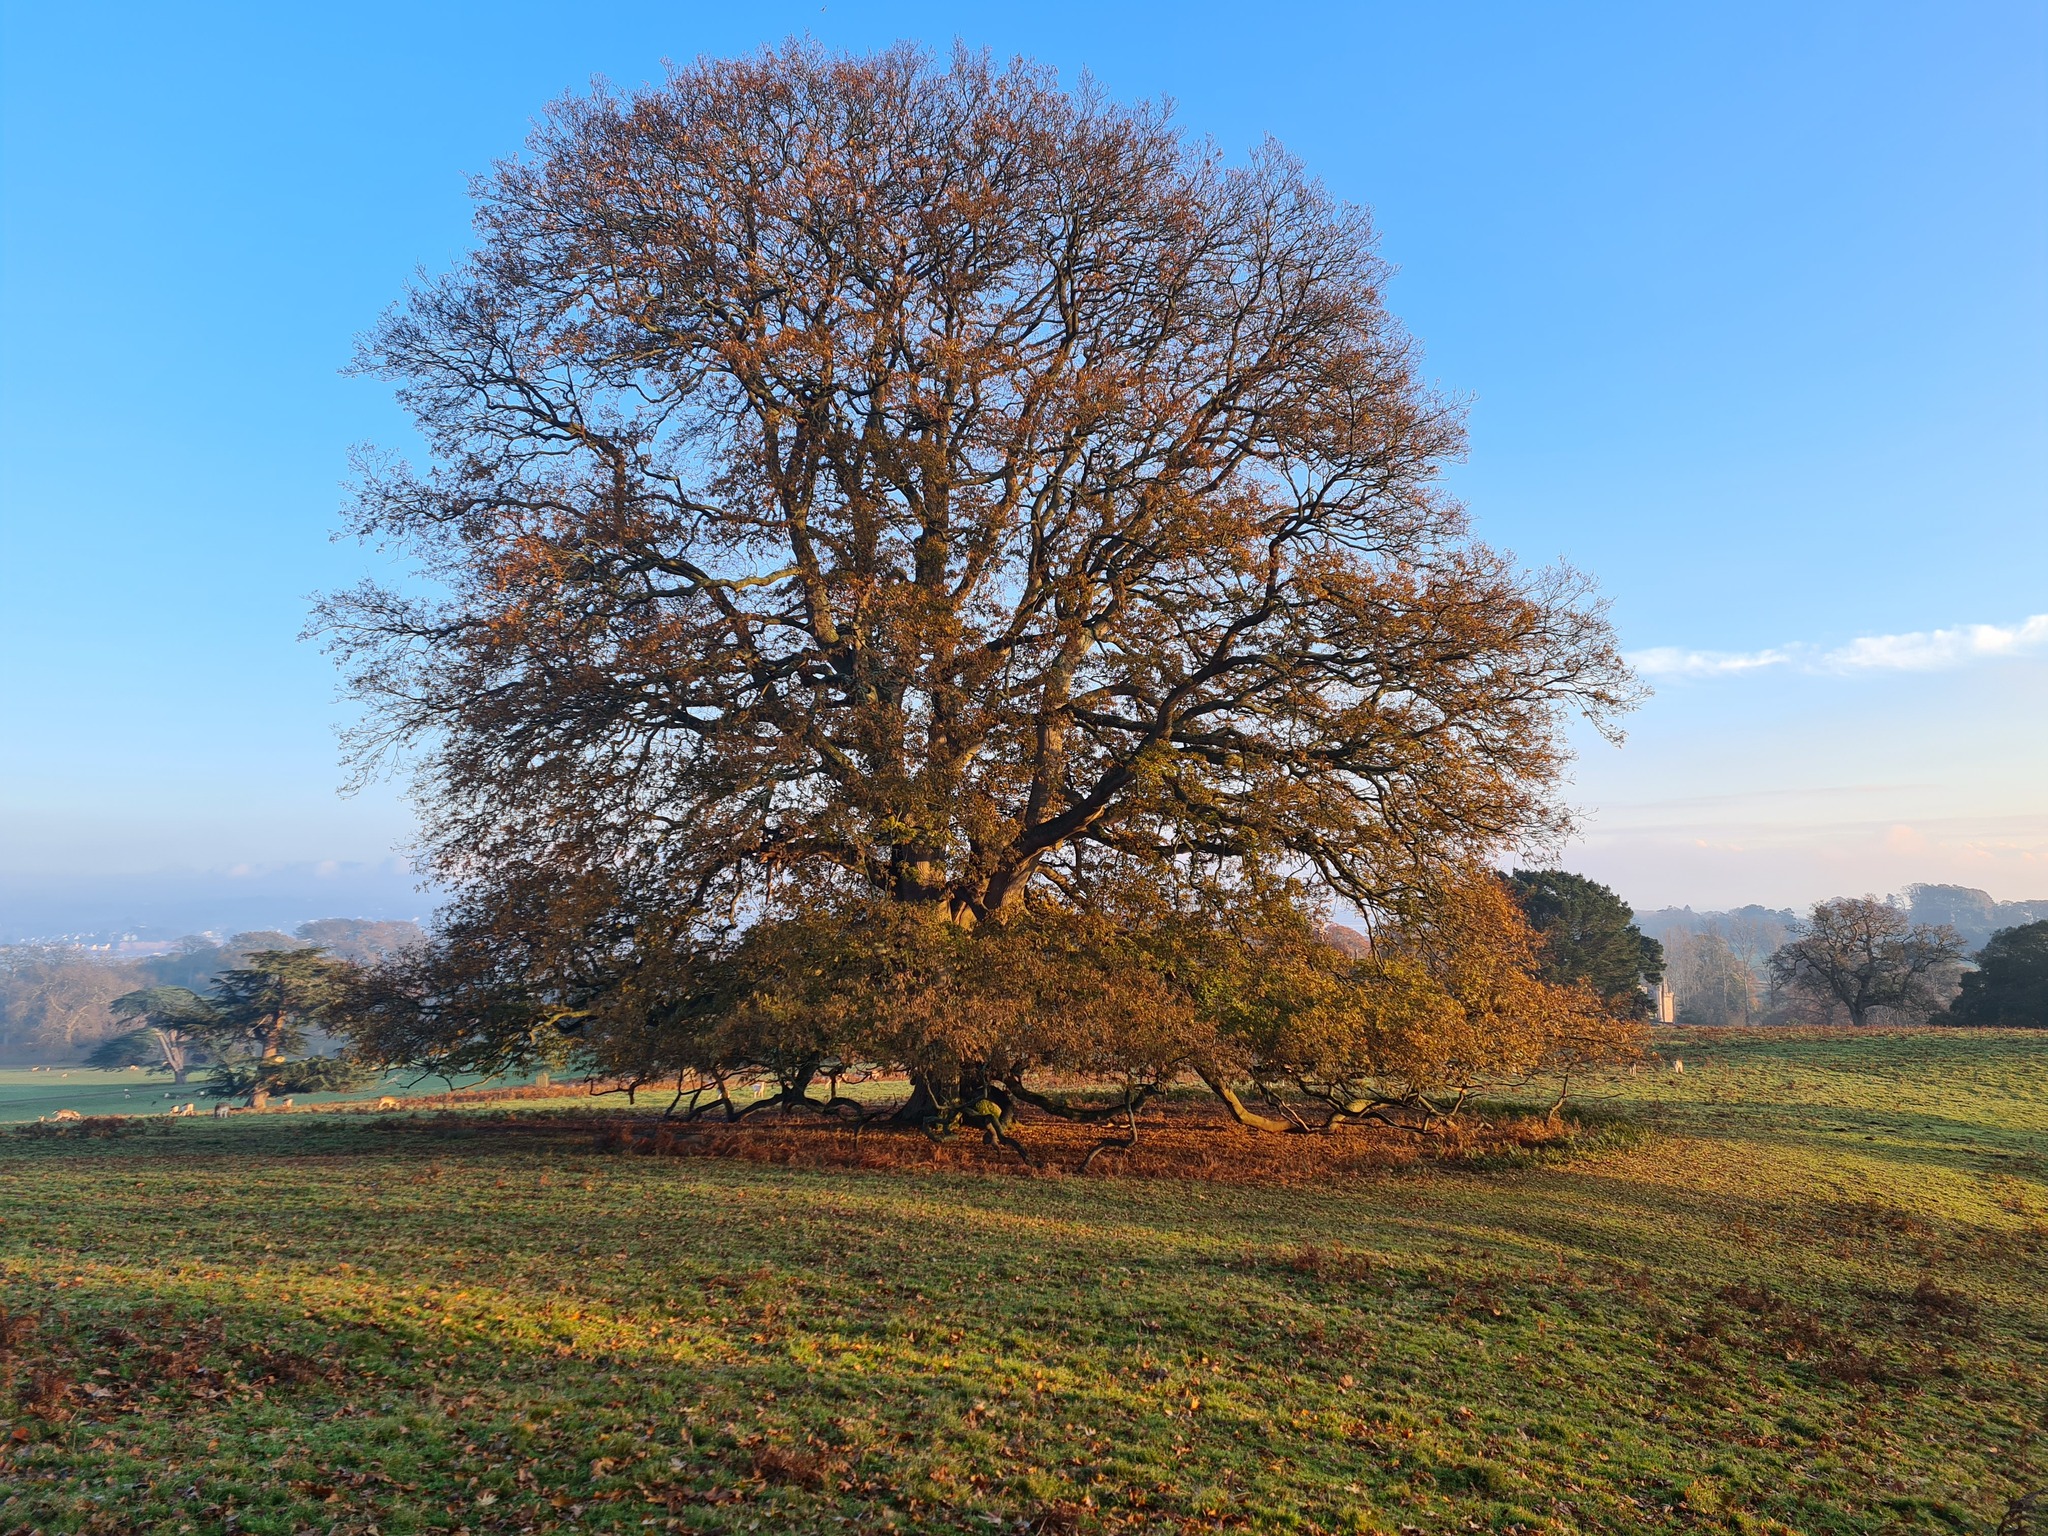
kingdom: Plantae
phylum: Tracheophyta
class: Magnoliopsida
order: Fagales
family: Fagaceae
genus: Quercus
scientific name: Quercus robur
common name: Pedunculate oak
